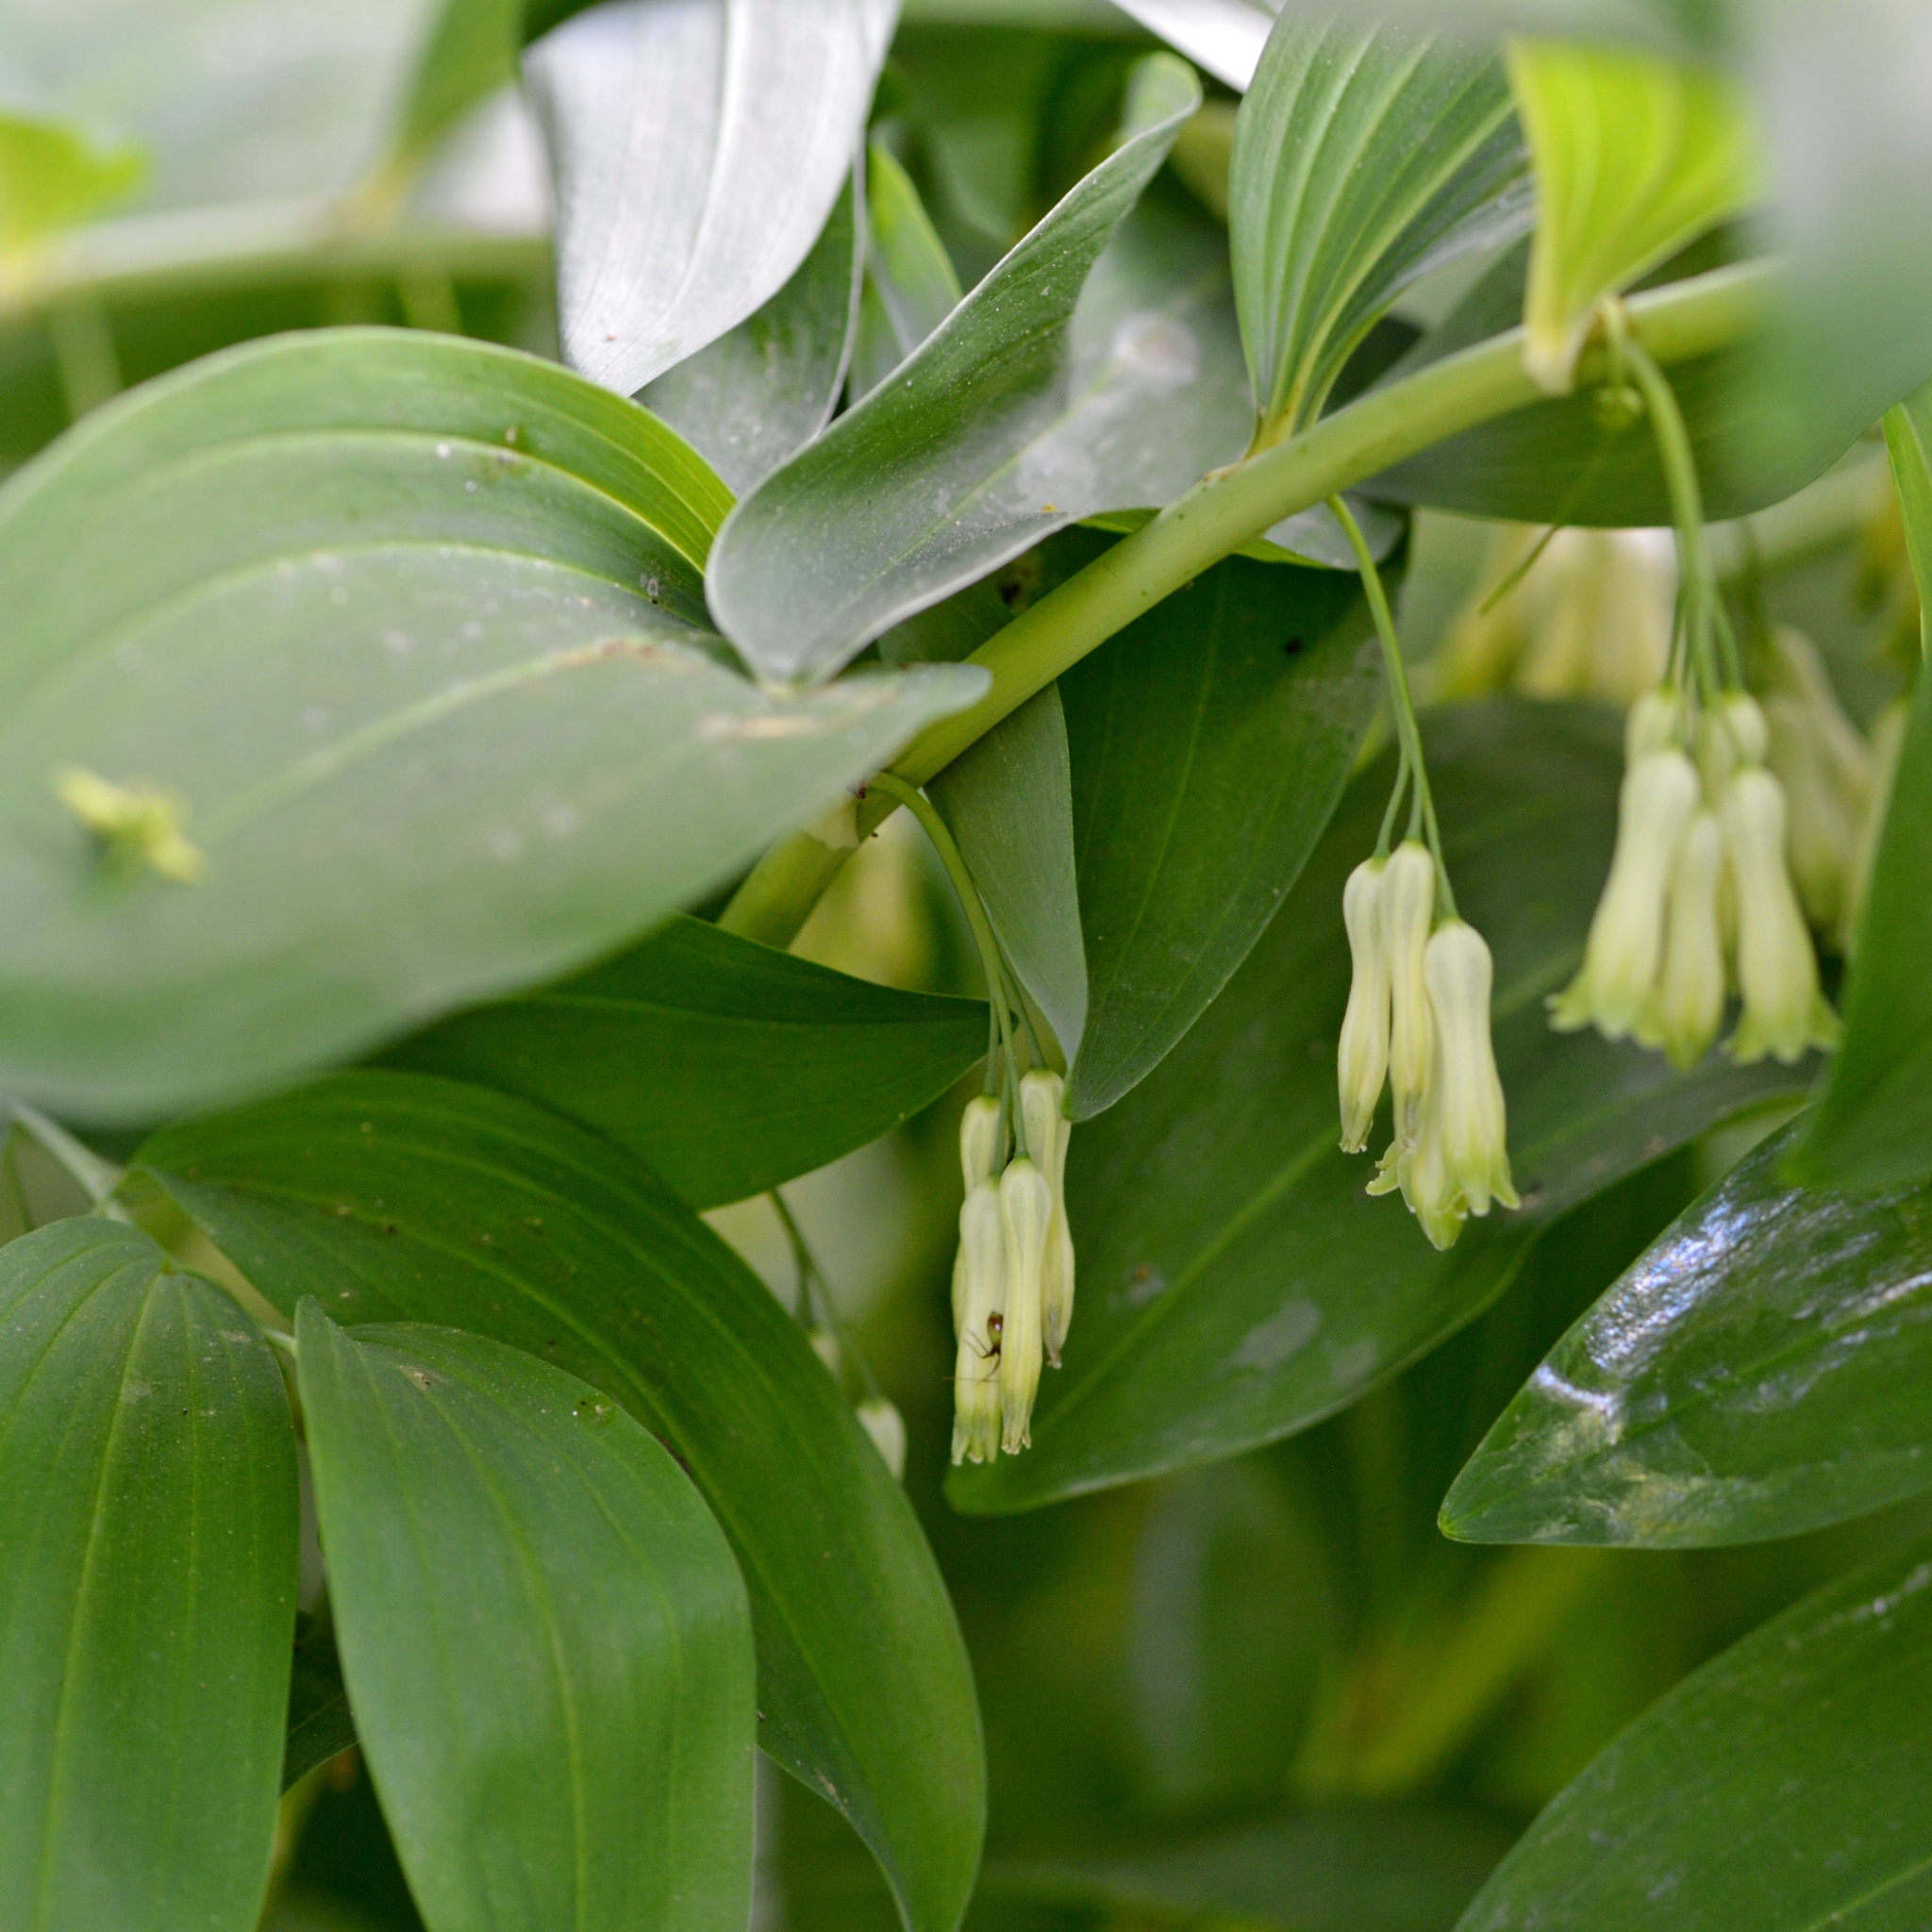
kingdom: Plantae
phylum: Tracheophyta
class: Liliopsida
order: Asparagales
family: Asparagaceae
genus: Polygonatum
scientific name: Polygonatum multiflorum
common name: Solomon's-seal
